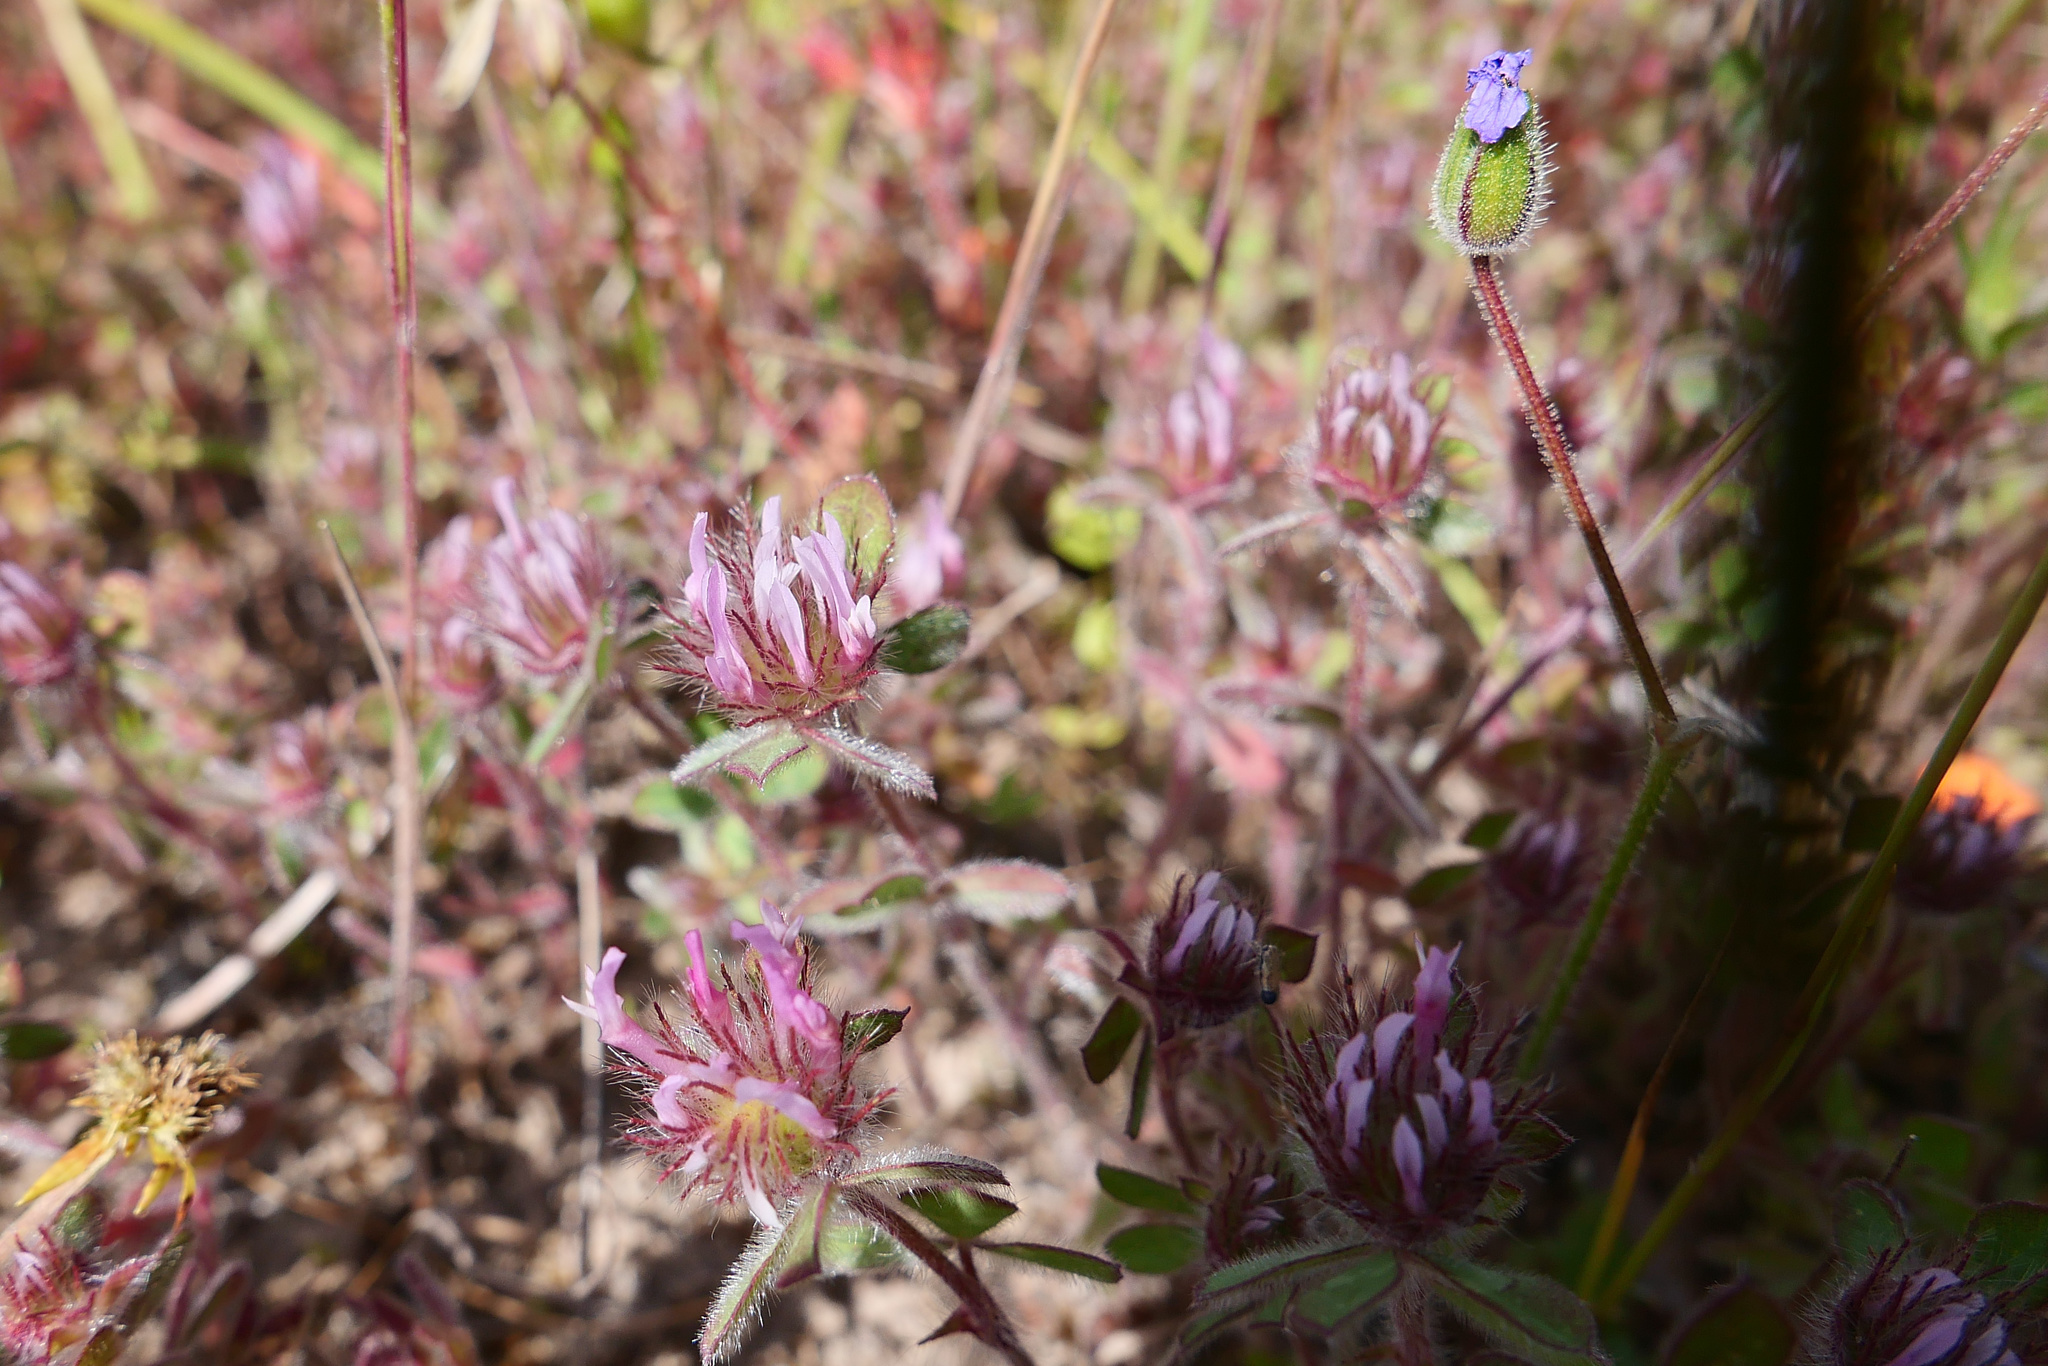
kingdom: Plantae
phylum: Tracheophyta
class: Magnoliopsida
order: Fabales
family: Fabaceae
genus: Trifolium
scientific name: Trifolium hirtum
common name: Rose clover
